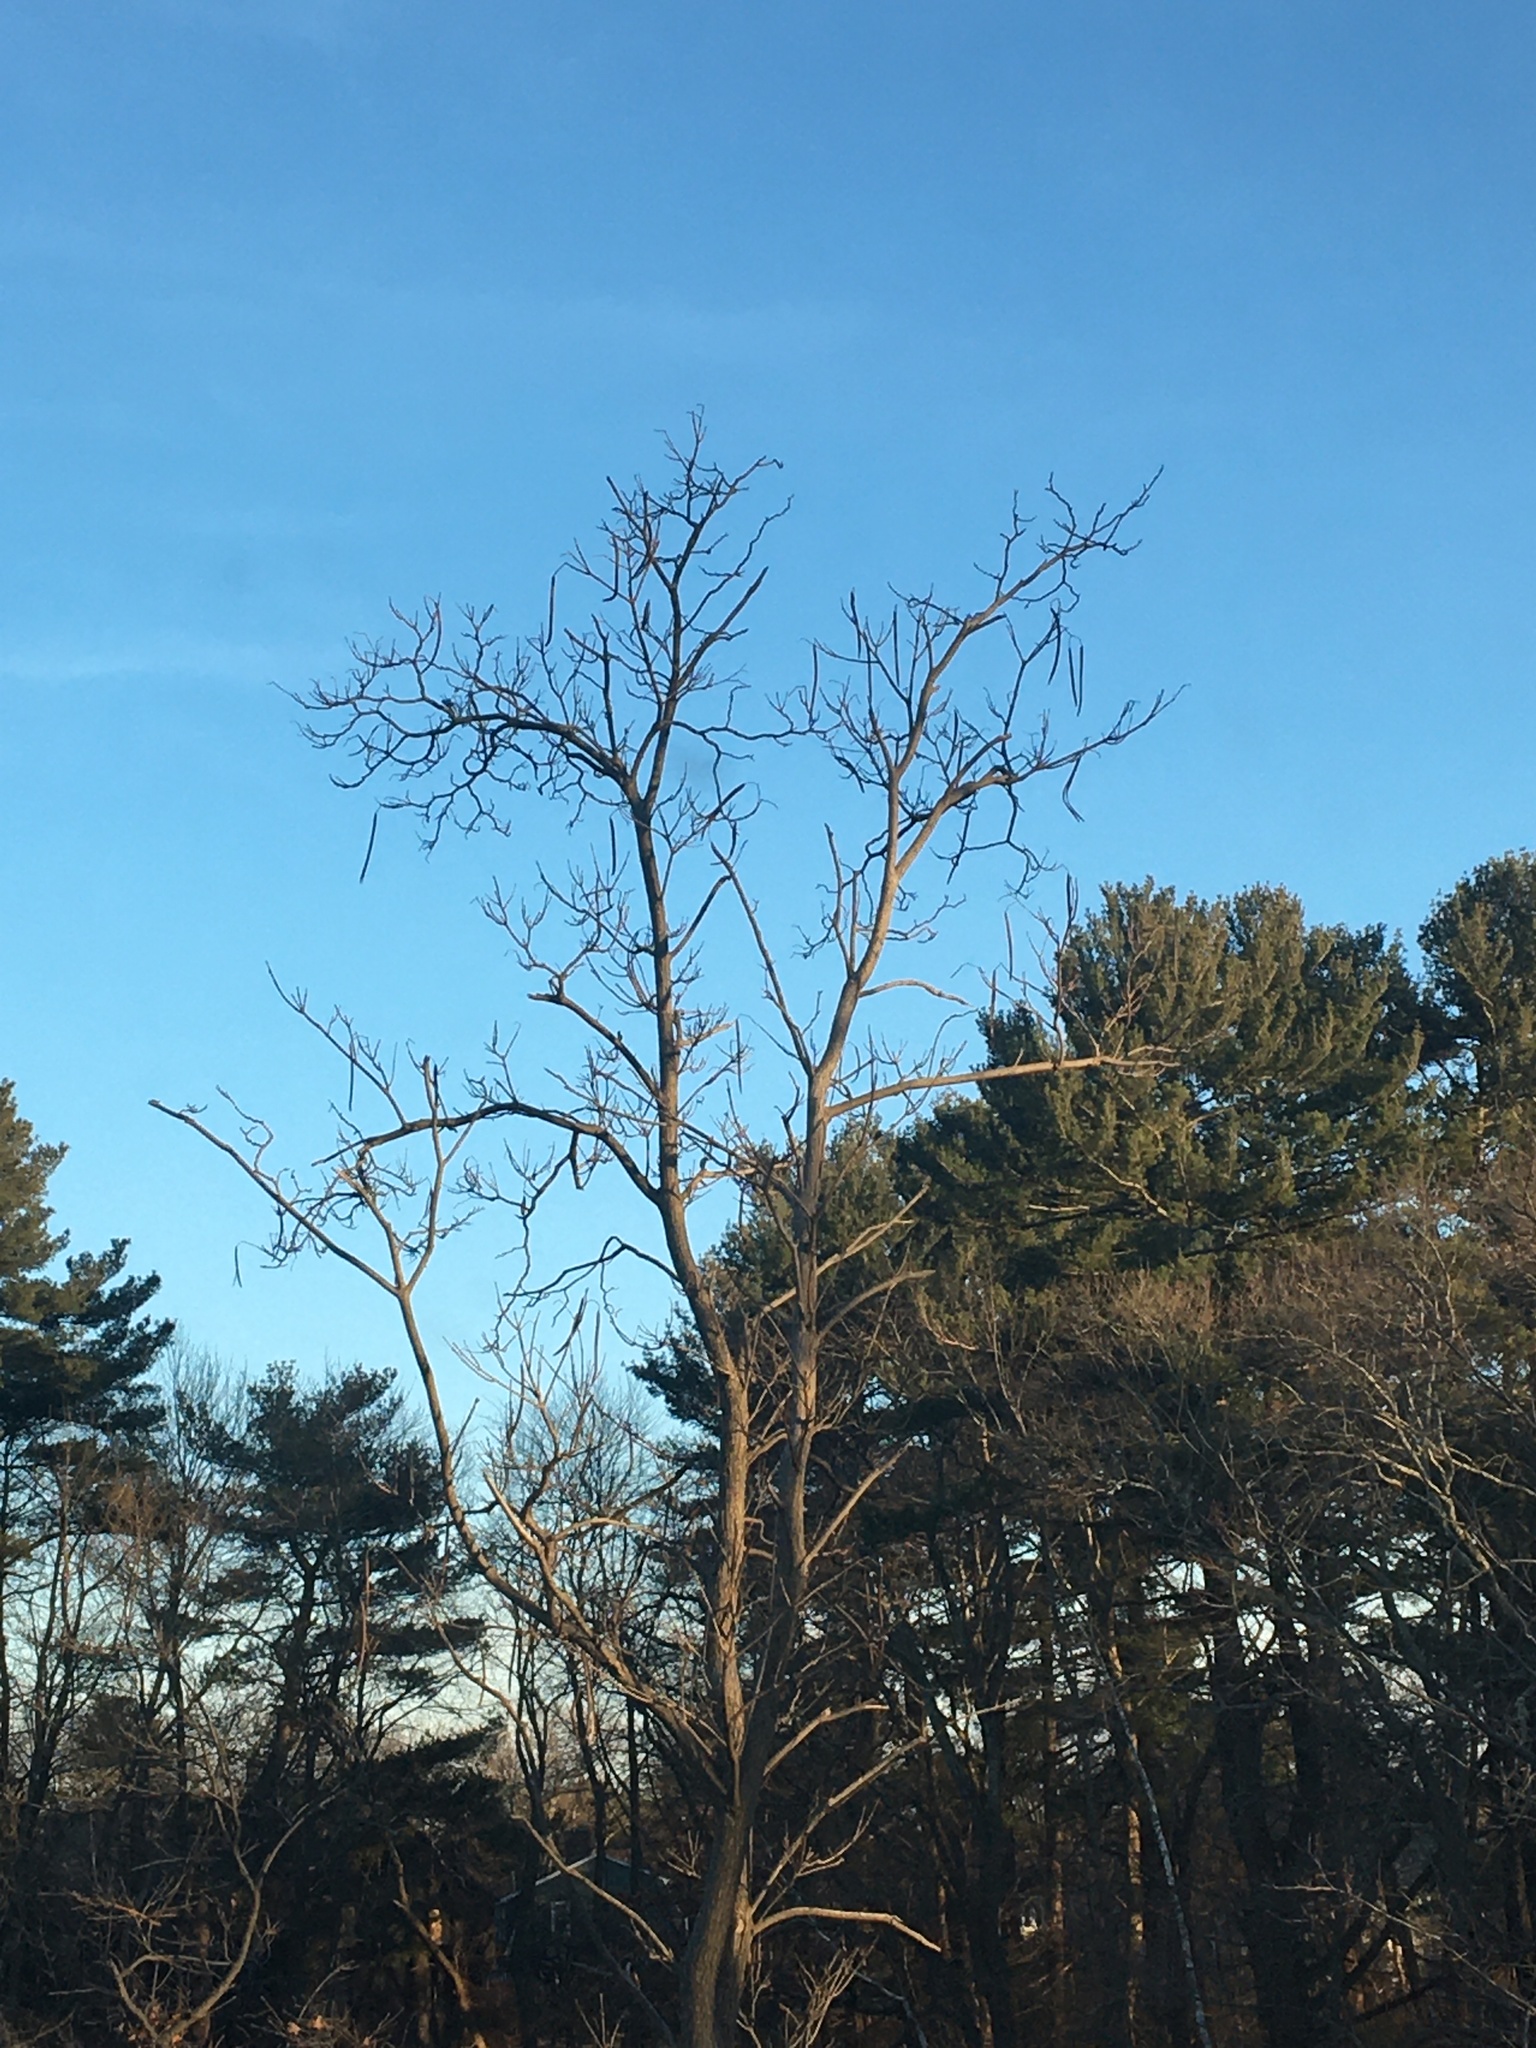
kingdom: Plantae
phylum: Tracheophyta
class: Magnoliopsida
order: Lamiales
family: Bignoniaceae
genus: Catalpa
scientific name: Catalpa speciosa
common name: Northern catalpa
